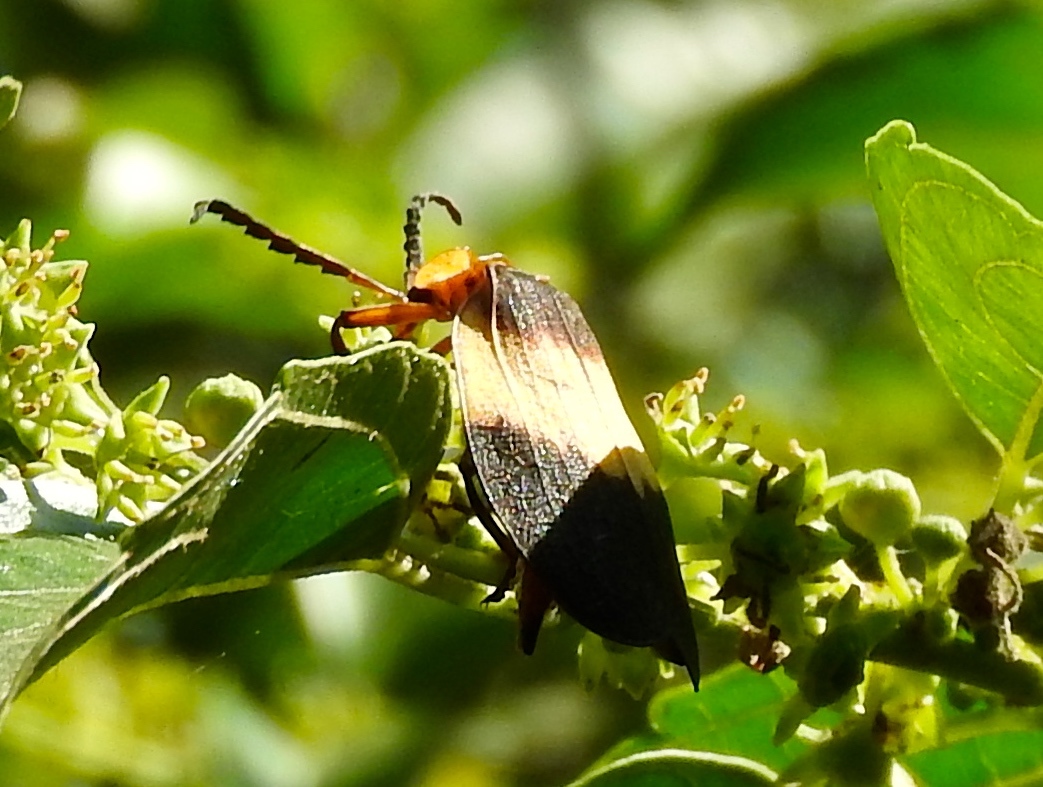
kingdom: Animalia
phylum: Arthropoda
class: Insecta
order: Coleoptera
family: Lycidae
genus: Lycus
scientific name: Lycus
